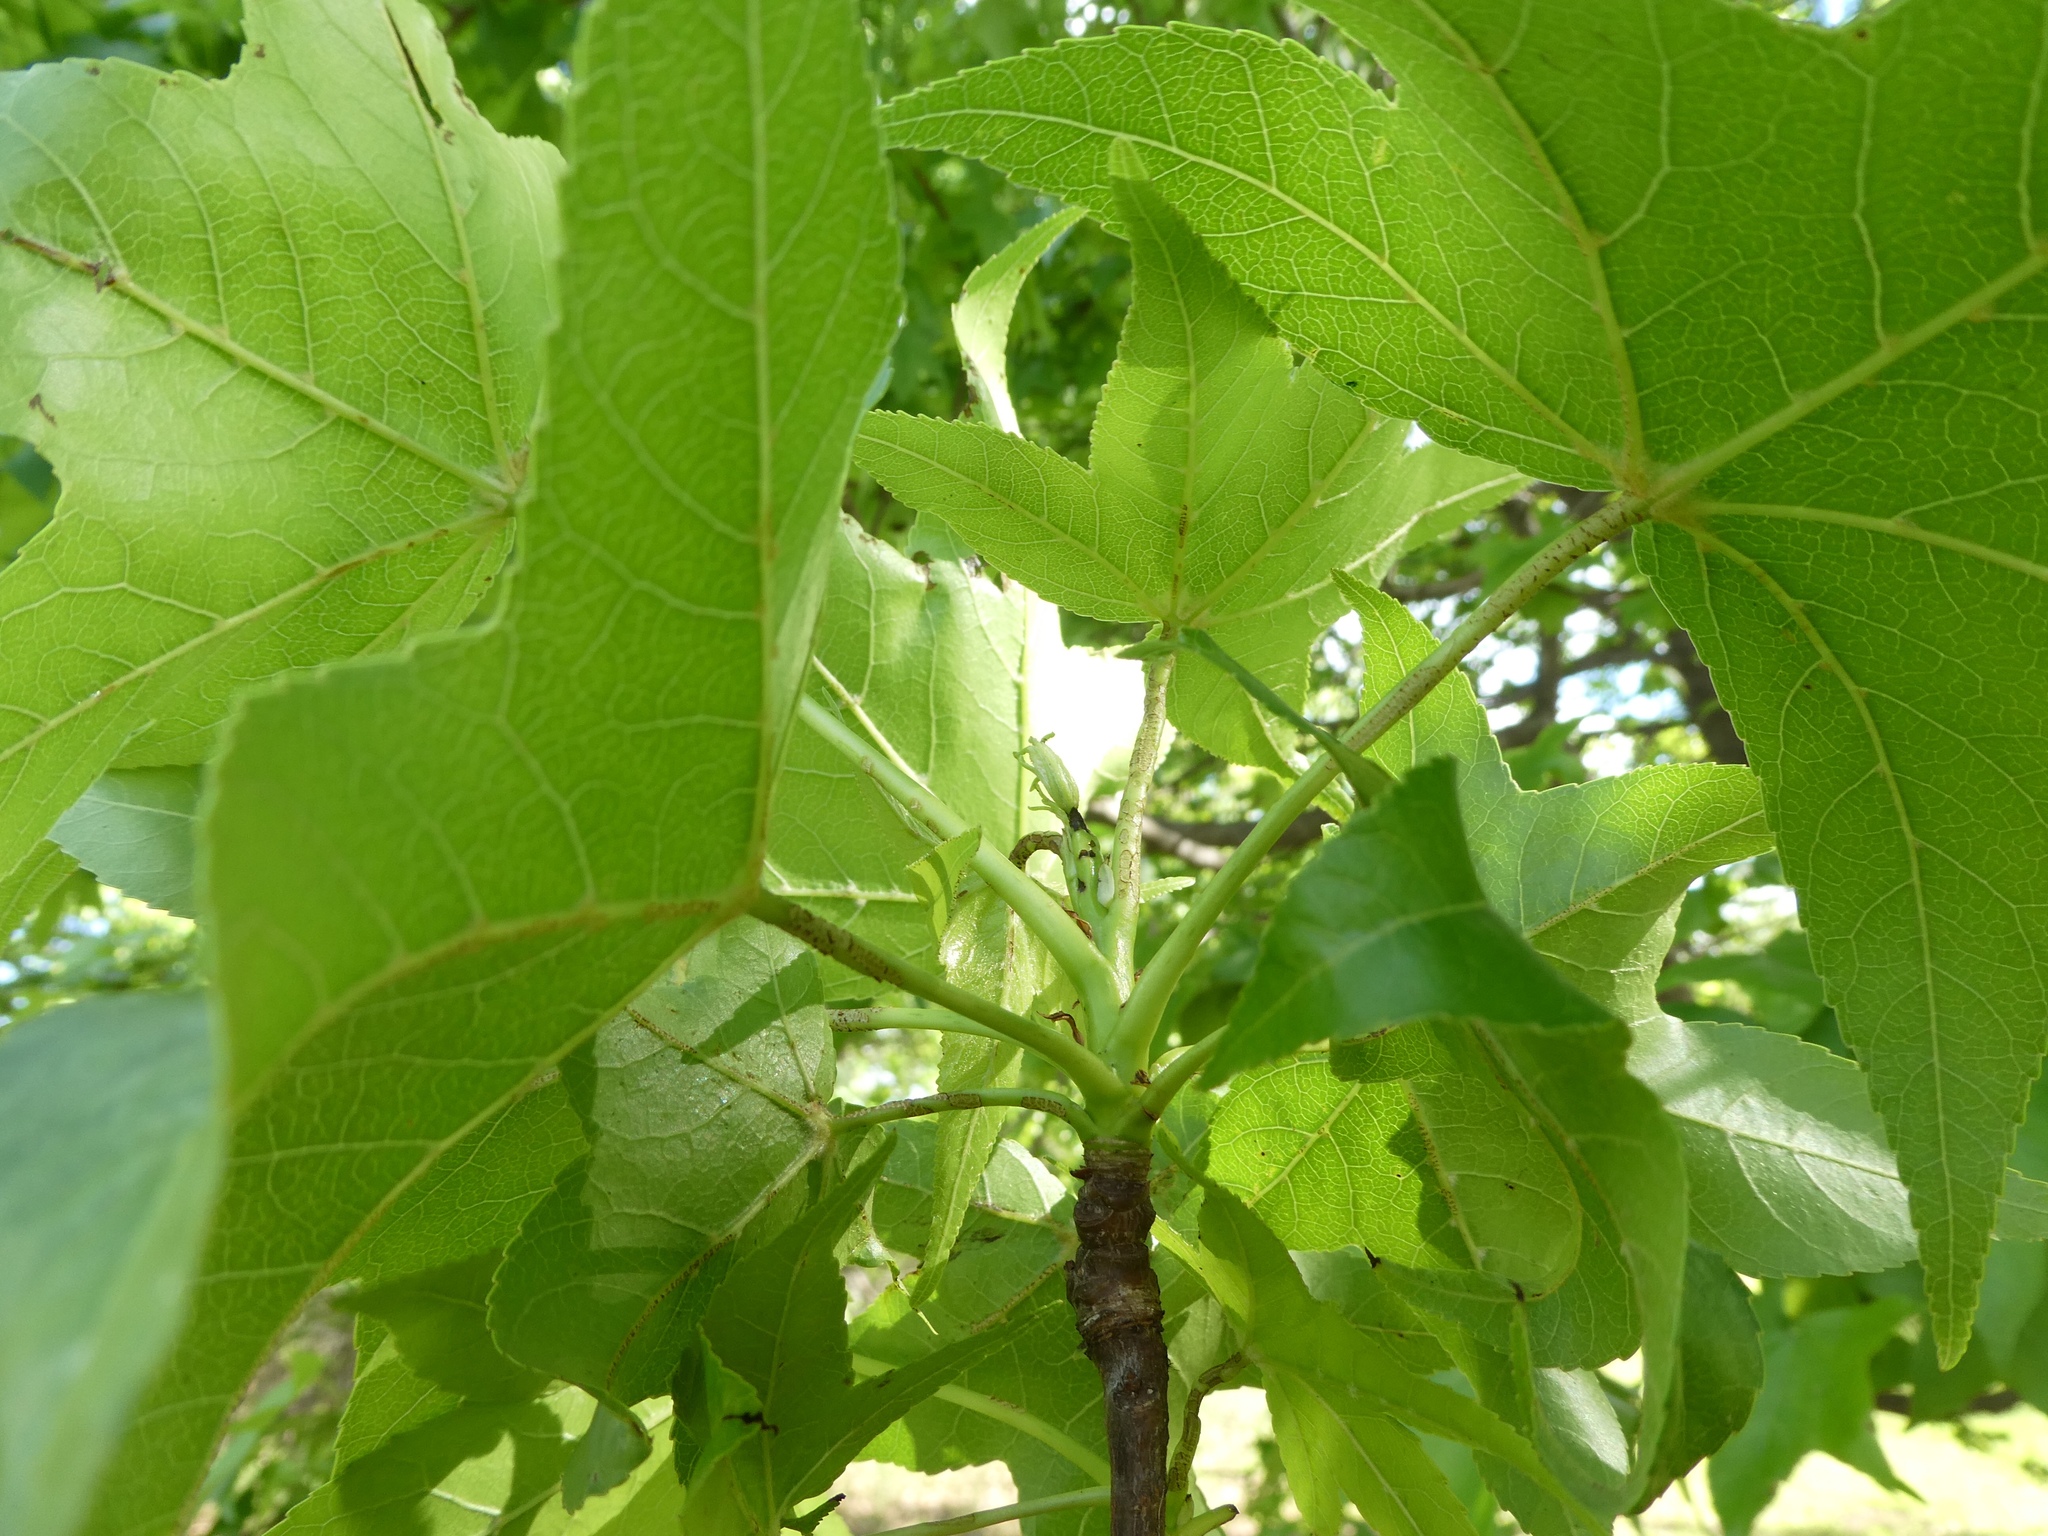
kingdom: Plantae
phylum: Tracheophyta
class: Magnoliopsida
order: Saxifragales
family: Altingiaceae
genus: Liquidambar
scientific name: Liquidambar styraciflua
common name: Sweet gum
